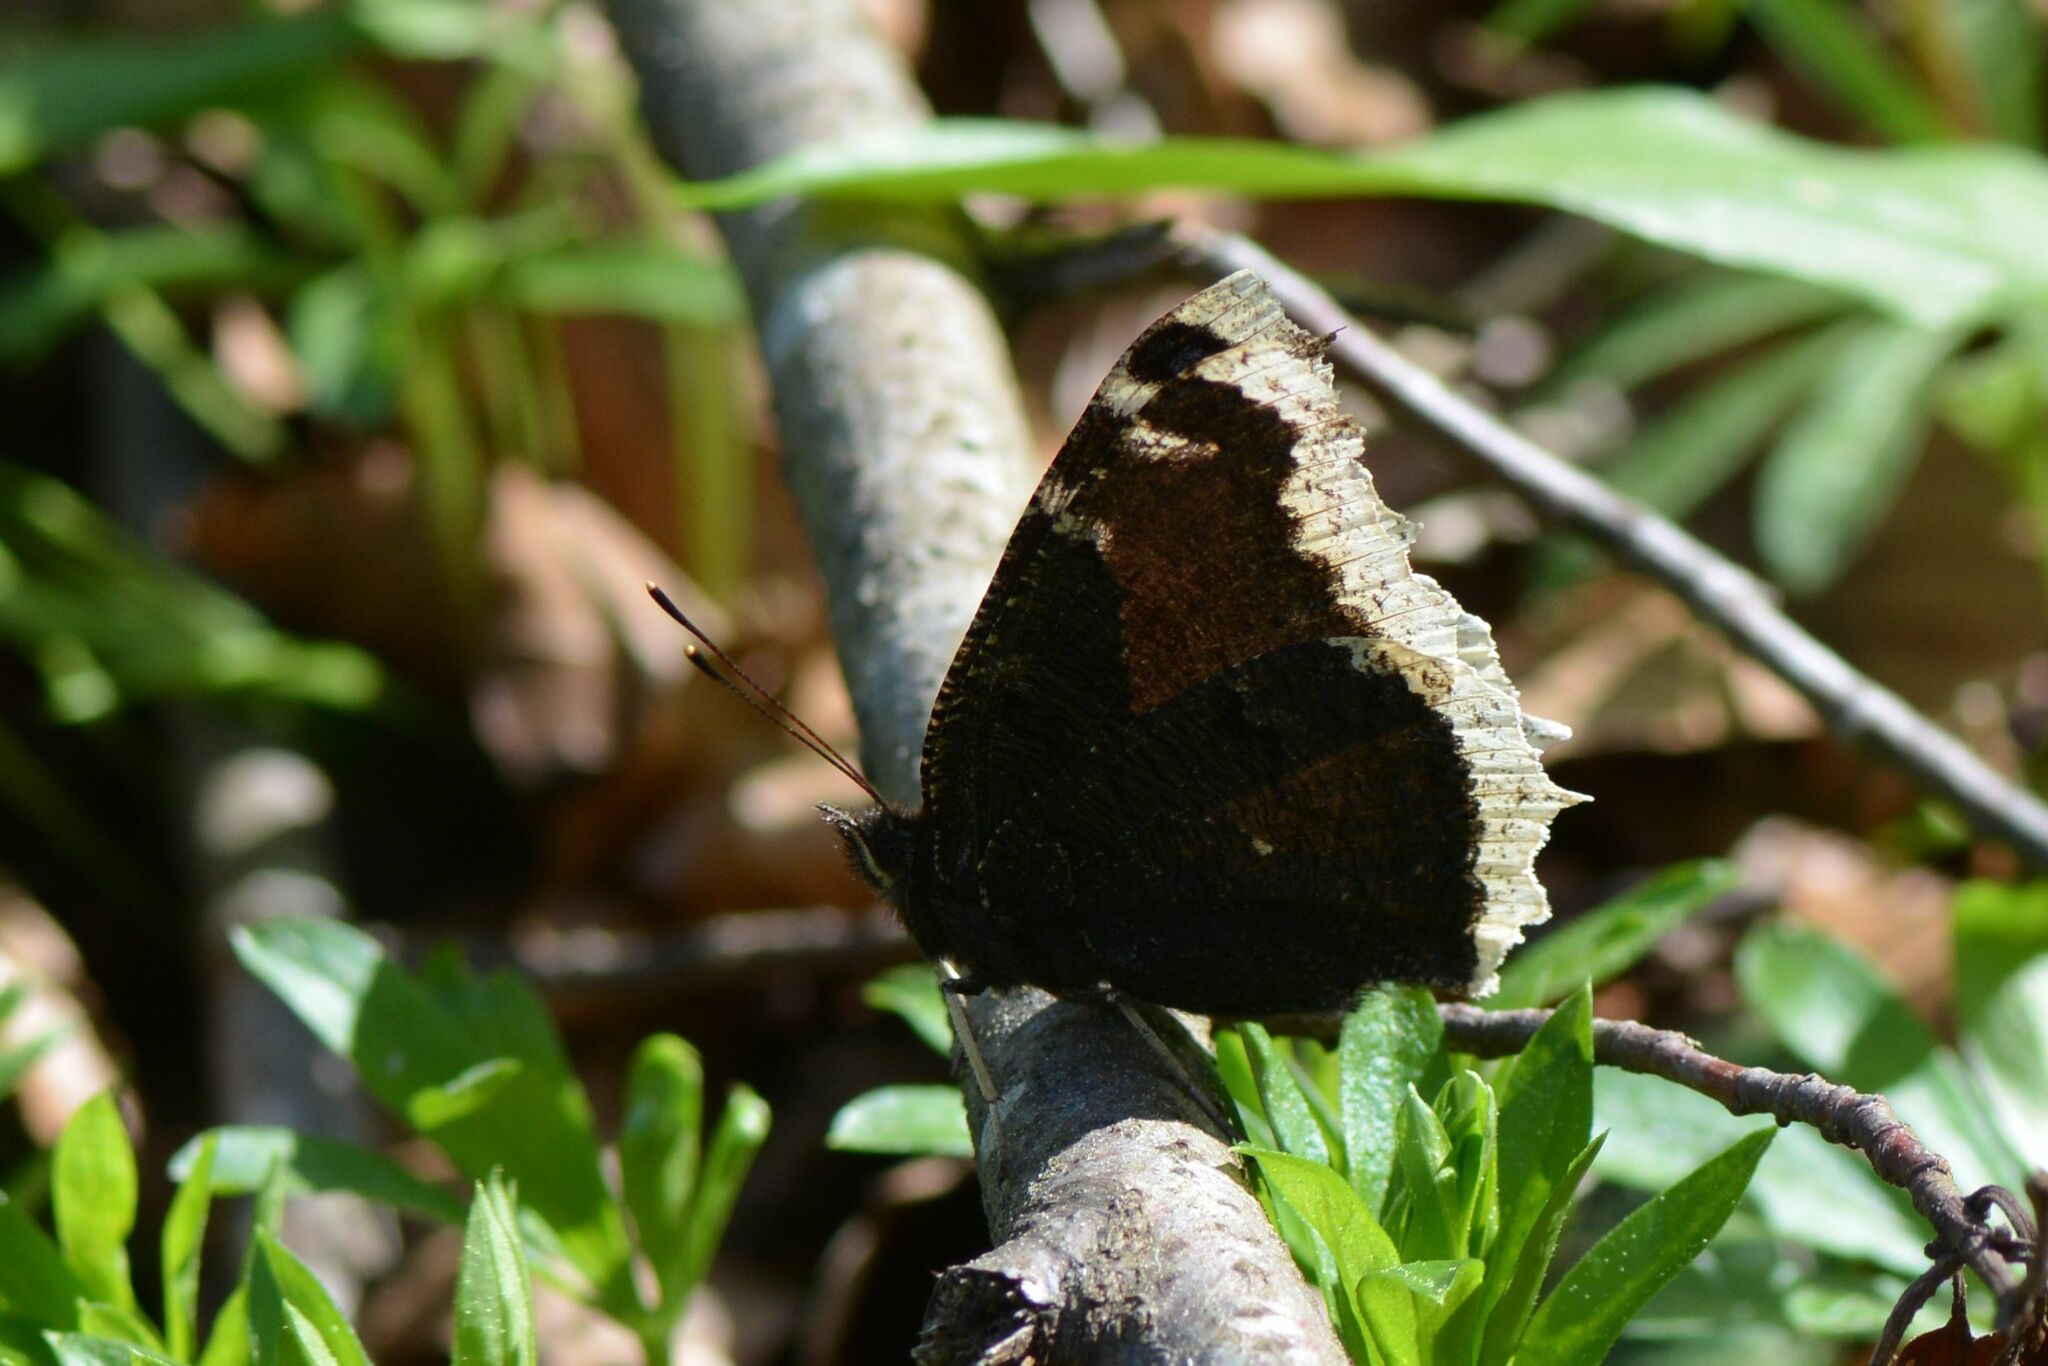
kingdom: Animalia
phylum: Arthropoda
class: Insecta
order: Lepidoptera
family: Nymphalidae
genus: Nymphalis
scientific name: Nymphalis antiopa
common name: Camberwell beauty
